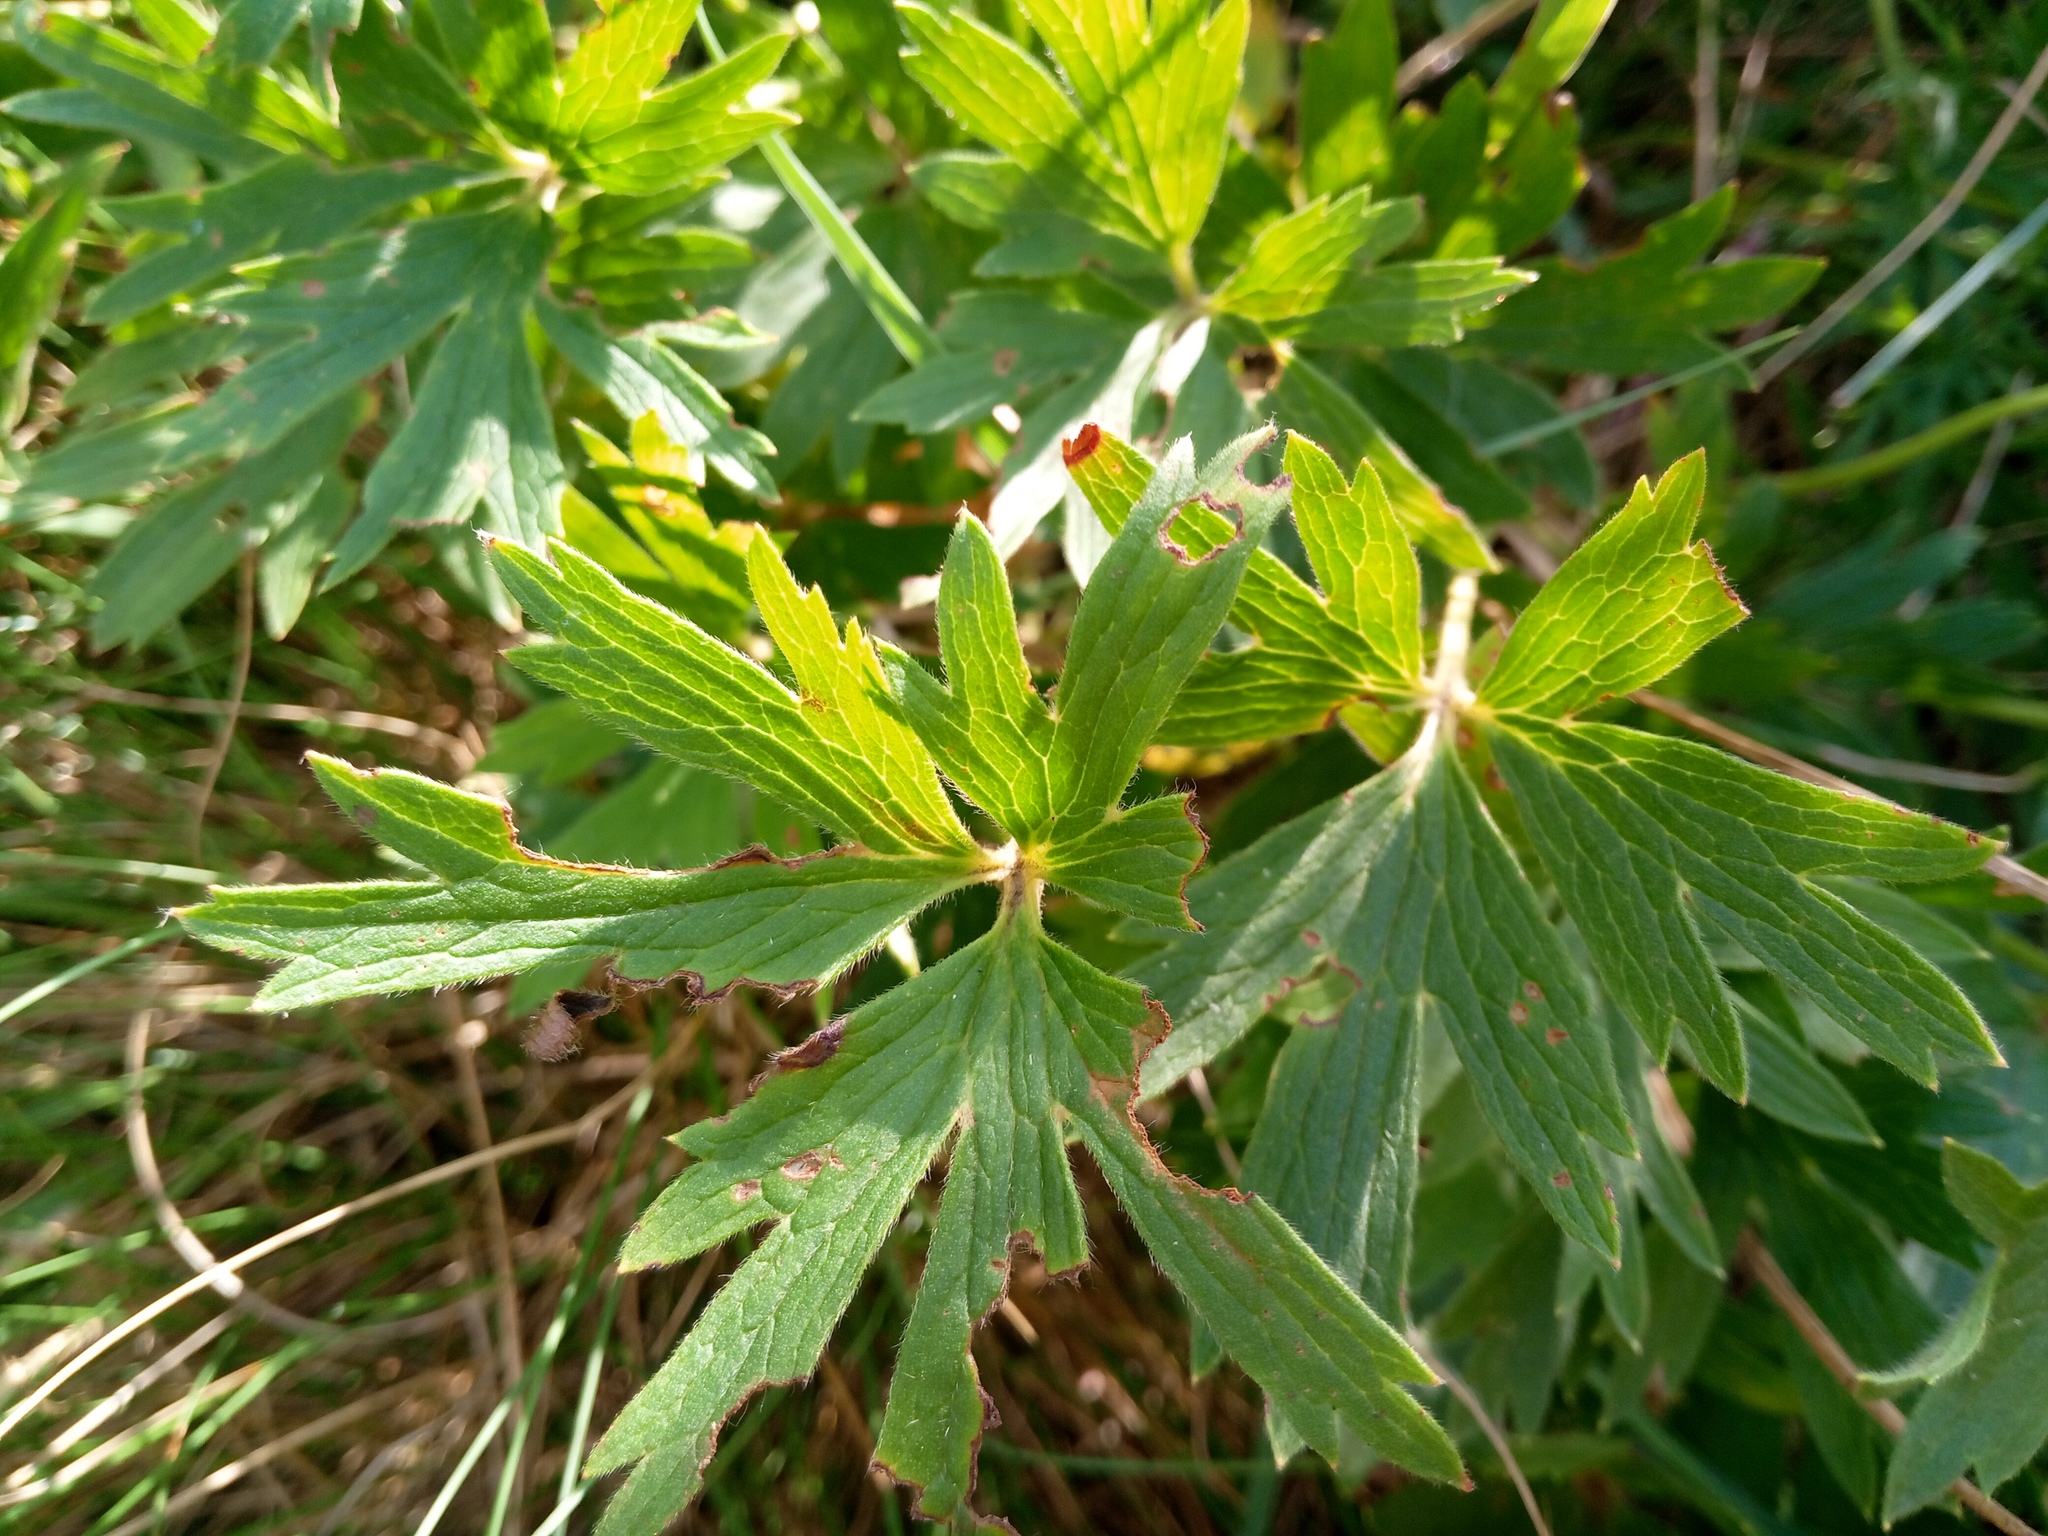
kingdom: Plantae
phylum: Tracheophyta
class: Magnoliopsida
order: Ranunculales
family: Ranunculaceae
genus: Pulsatilla
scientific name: Pulsatilla patens
